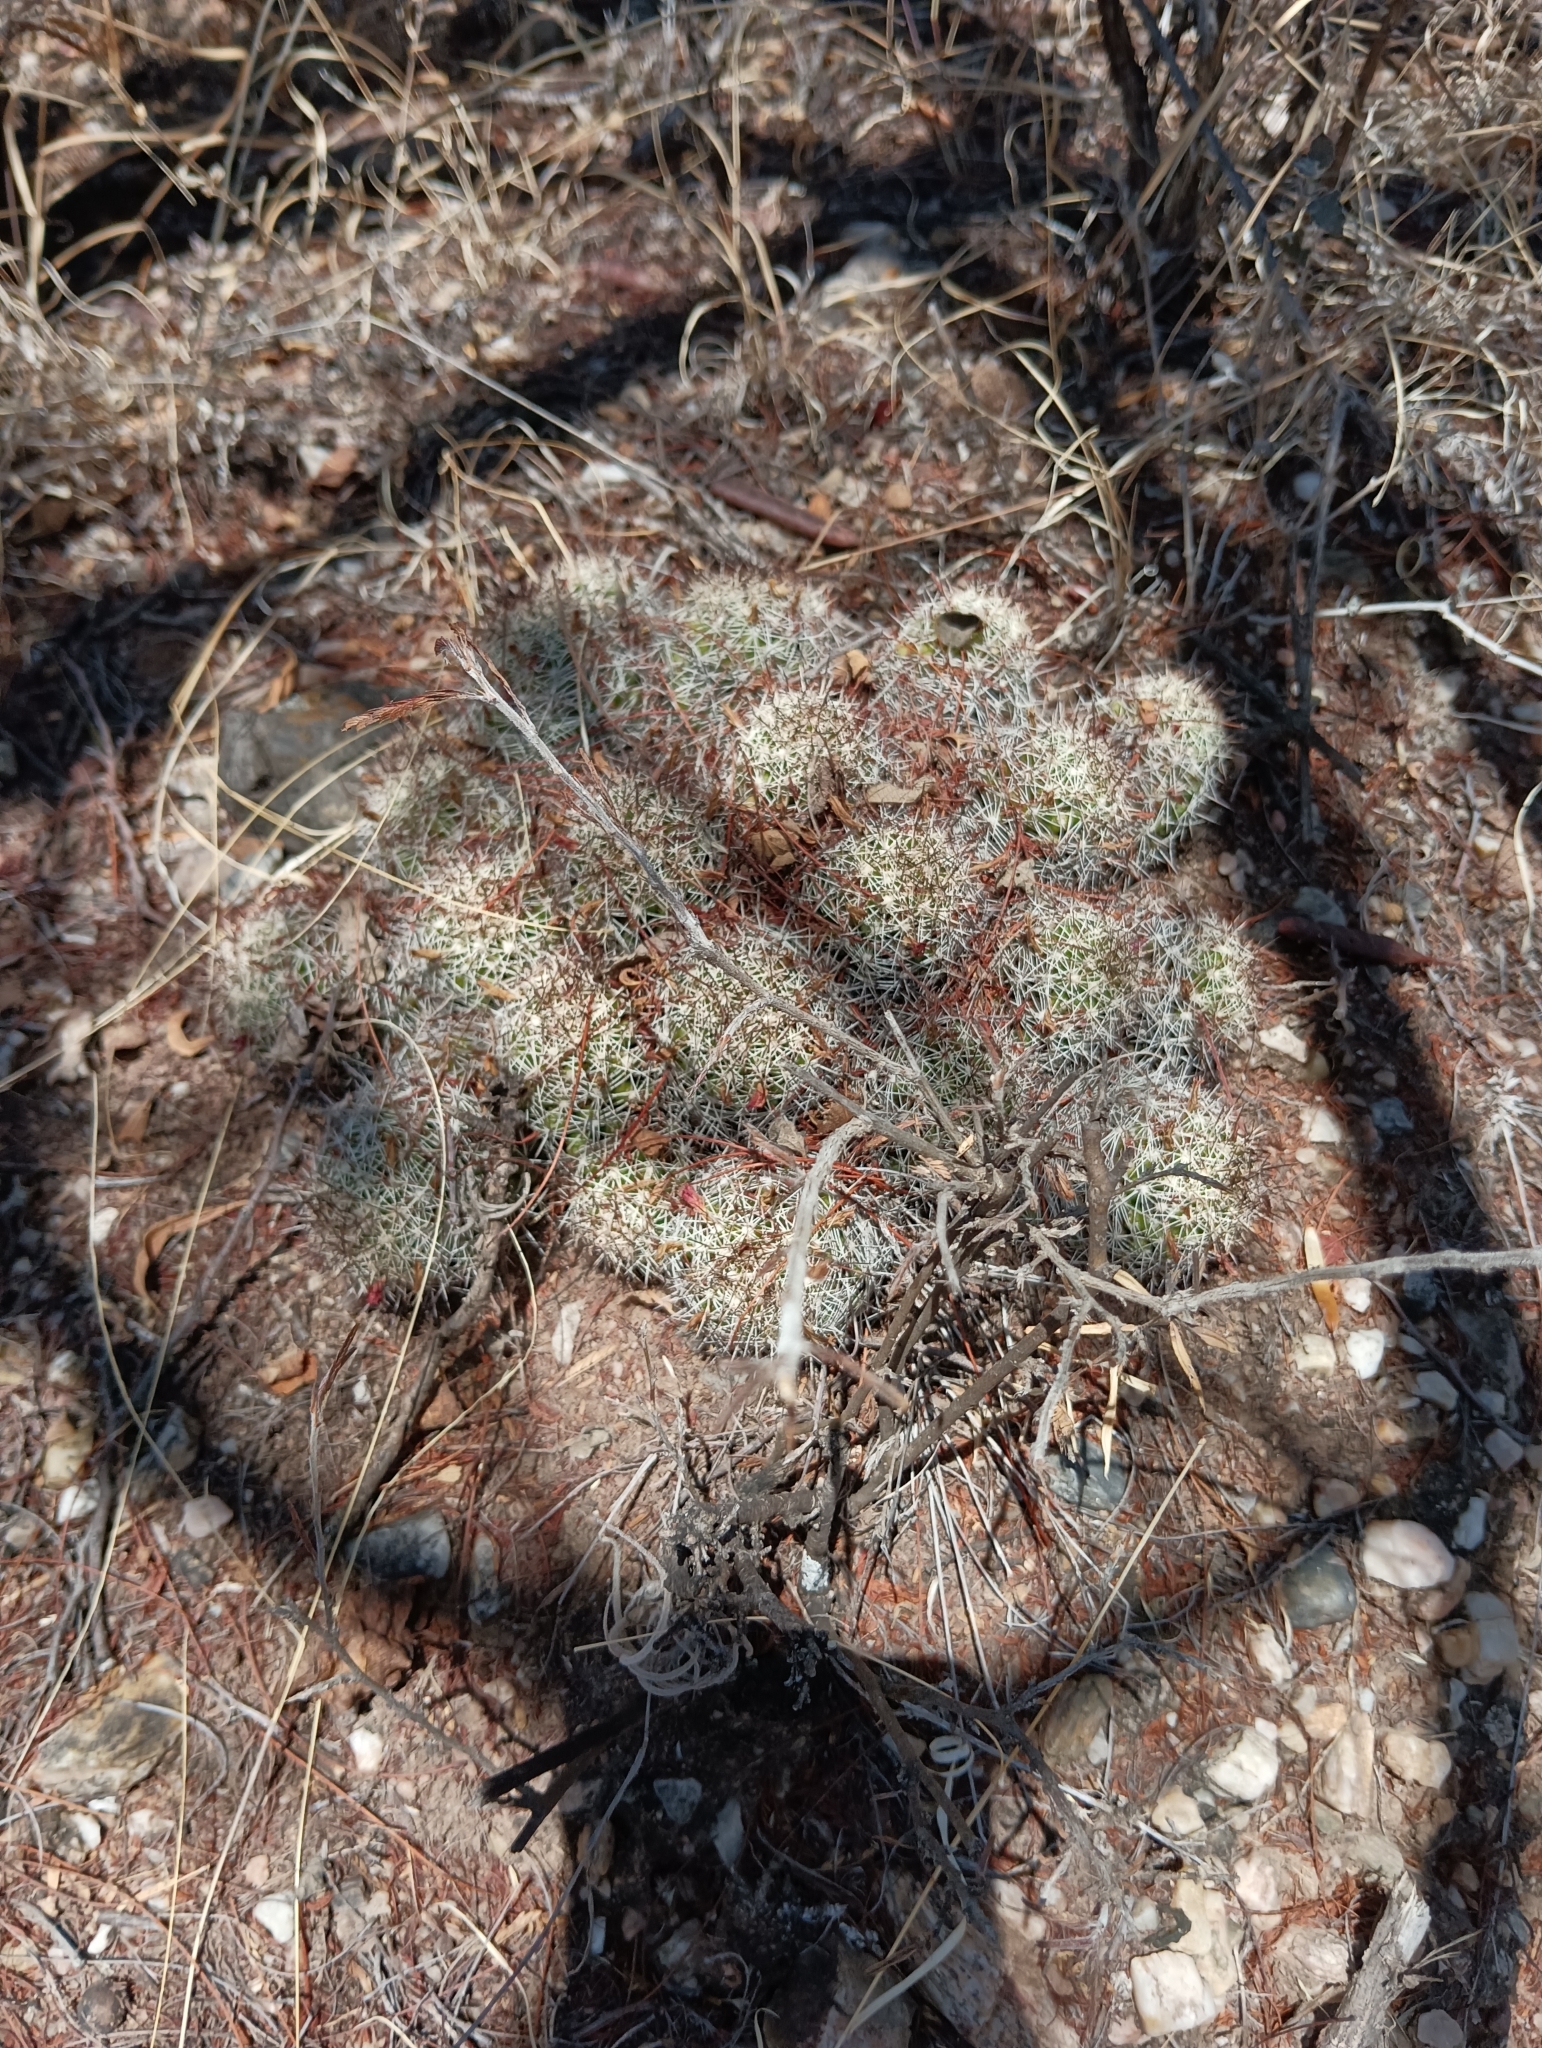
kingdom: Plantae
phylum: Tracheophyta
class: Magnoliopsida
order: Caryophyllales
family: Cactaceae
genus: Mammillaria
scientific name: Mammillaria sphacelata
